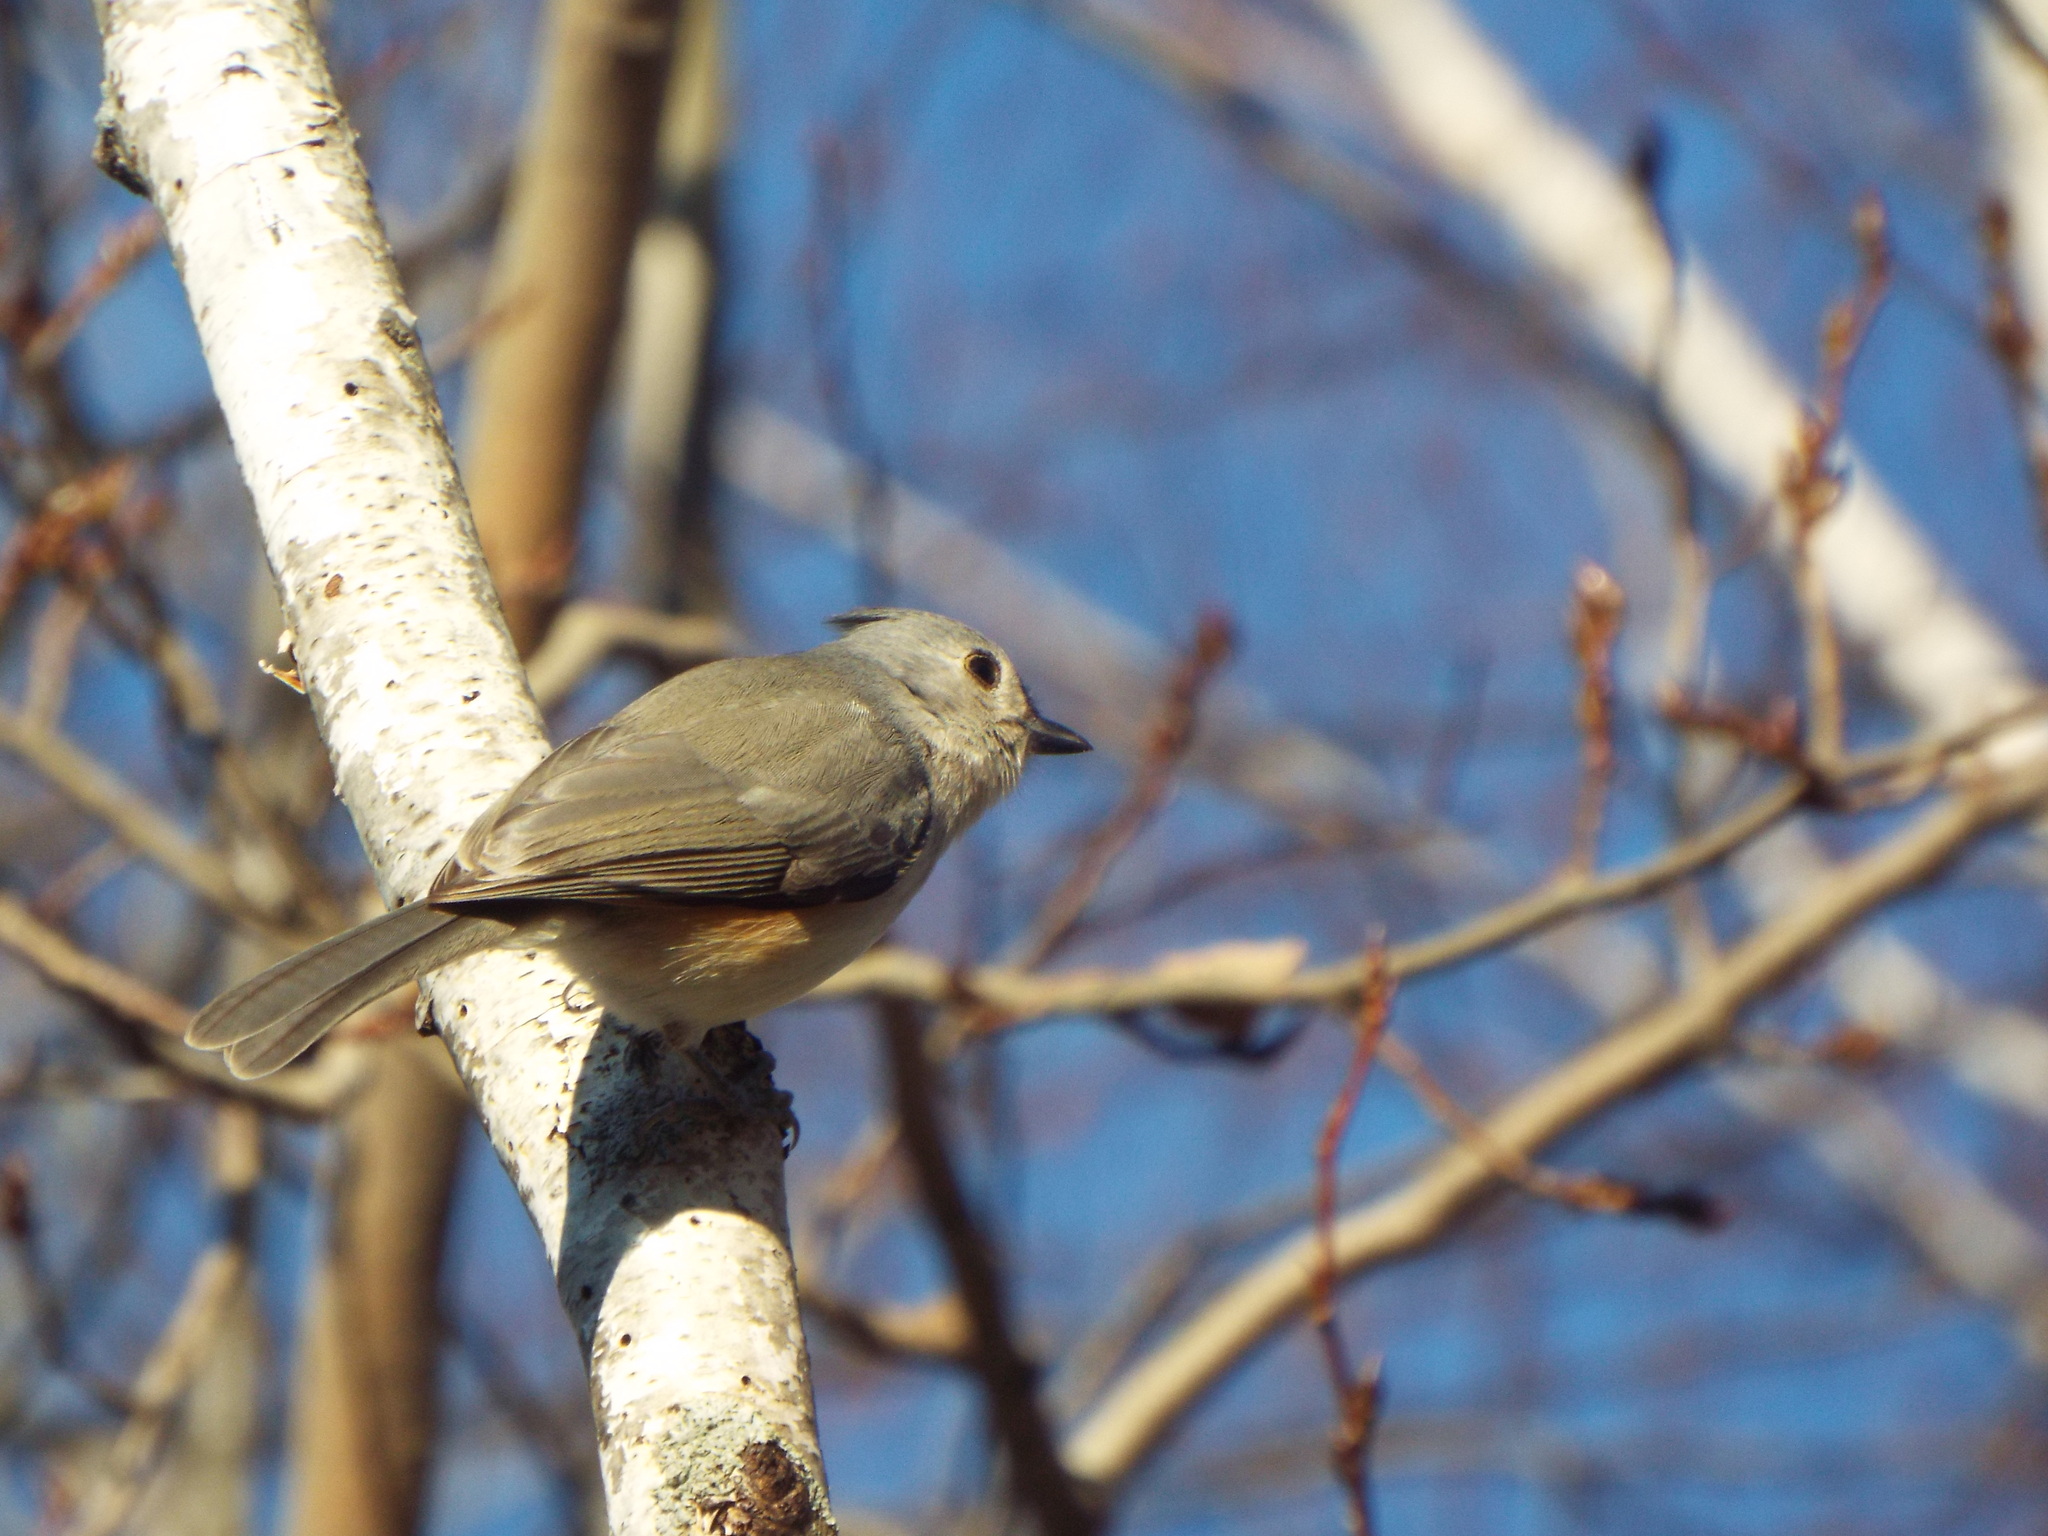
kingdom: Animalia
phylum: Chordata
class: Aves
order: Passeriformes
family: Paridae
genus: Baeolophus
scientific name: Baeolophus bicolor
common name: Tufted titmouse
